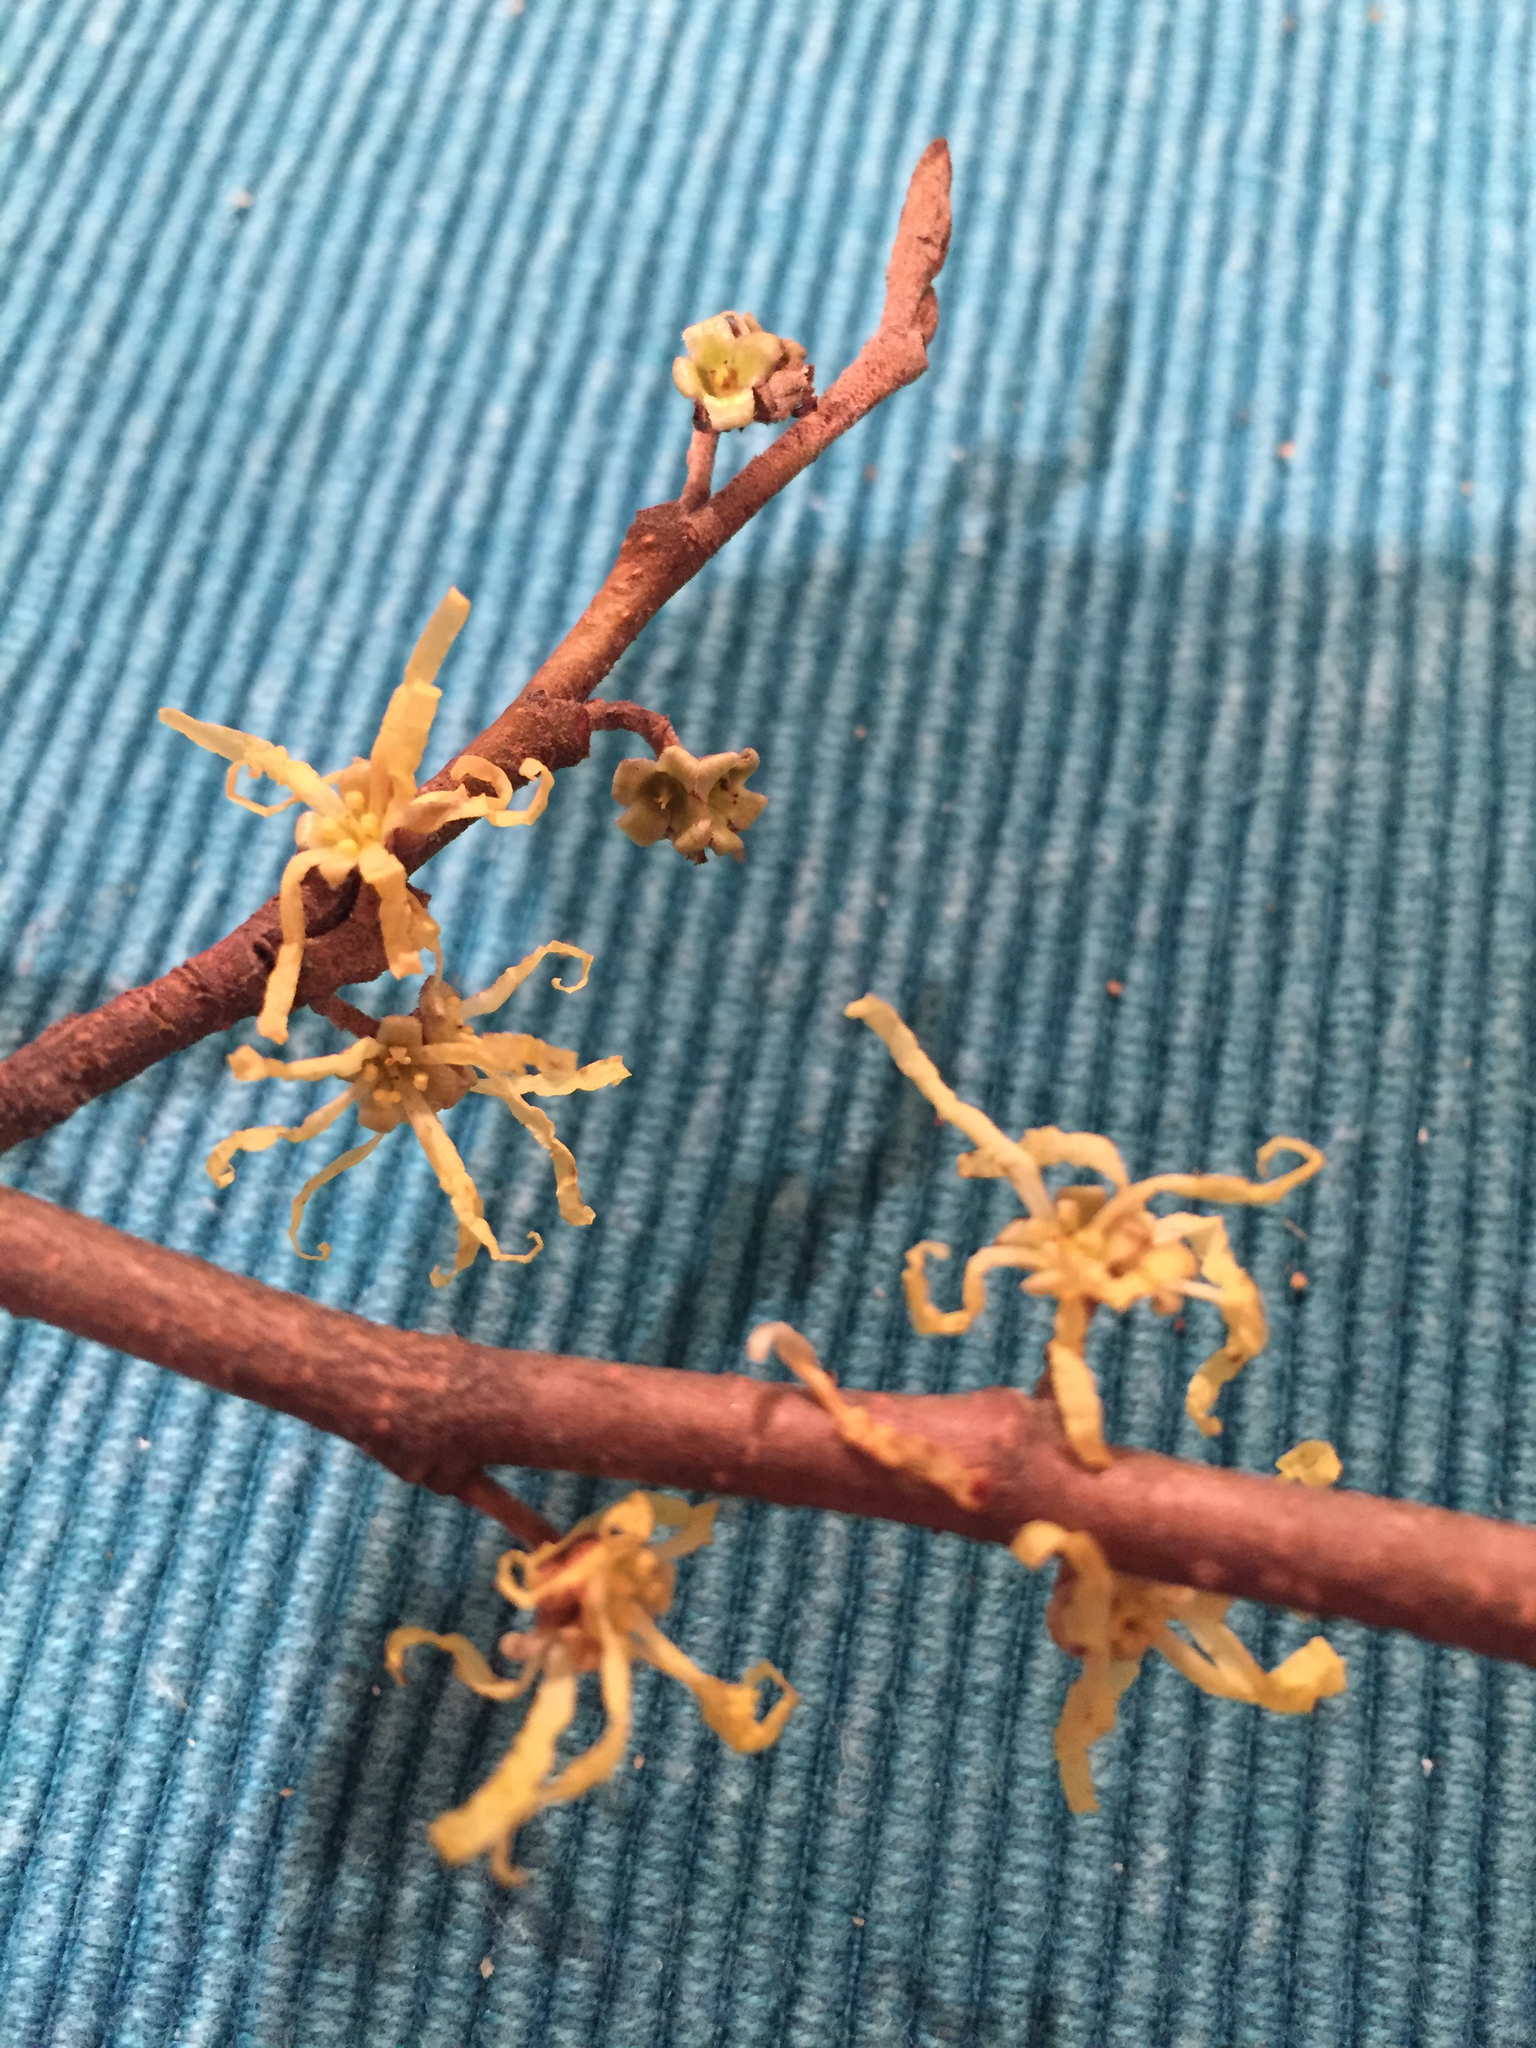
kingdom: Plantae
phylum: Tracheophyta
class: Magnoliopsida
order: Saxifragales
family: Hamamelidaceae
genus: Hamamelis
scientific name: Hamamelis virginiana
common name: Witch-hazel
